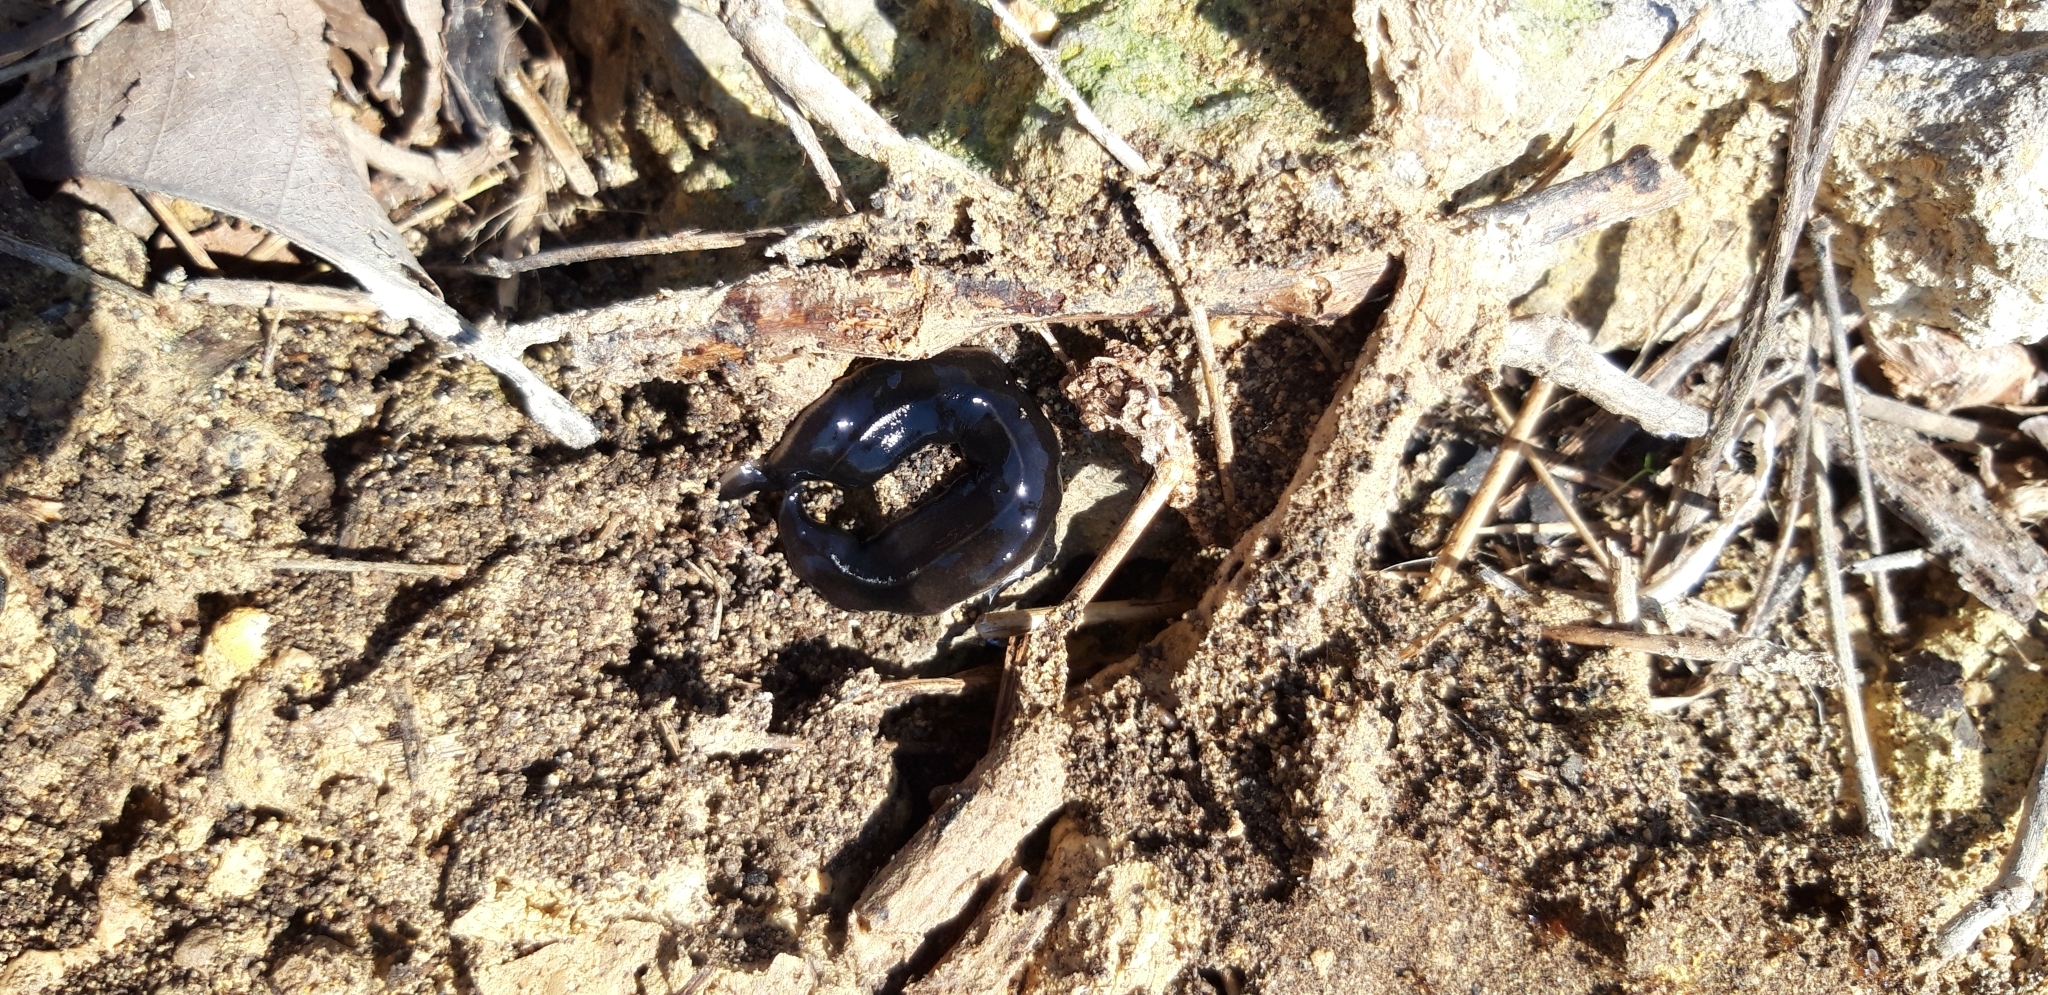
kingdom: Animalia
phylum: Platyhelminthes
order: Tricladida
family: Geoplanidae
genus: Platydemus
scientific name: Platydemus manokwari
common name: New guinea flatworm
